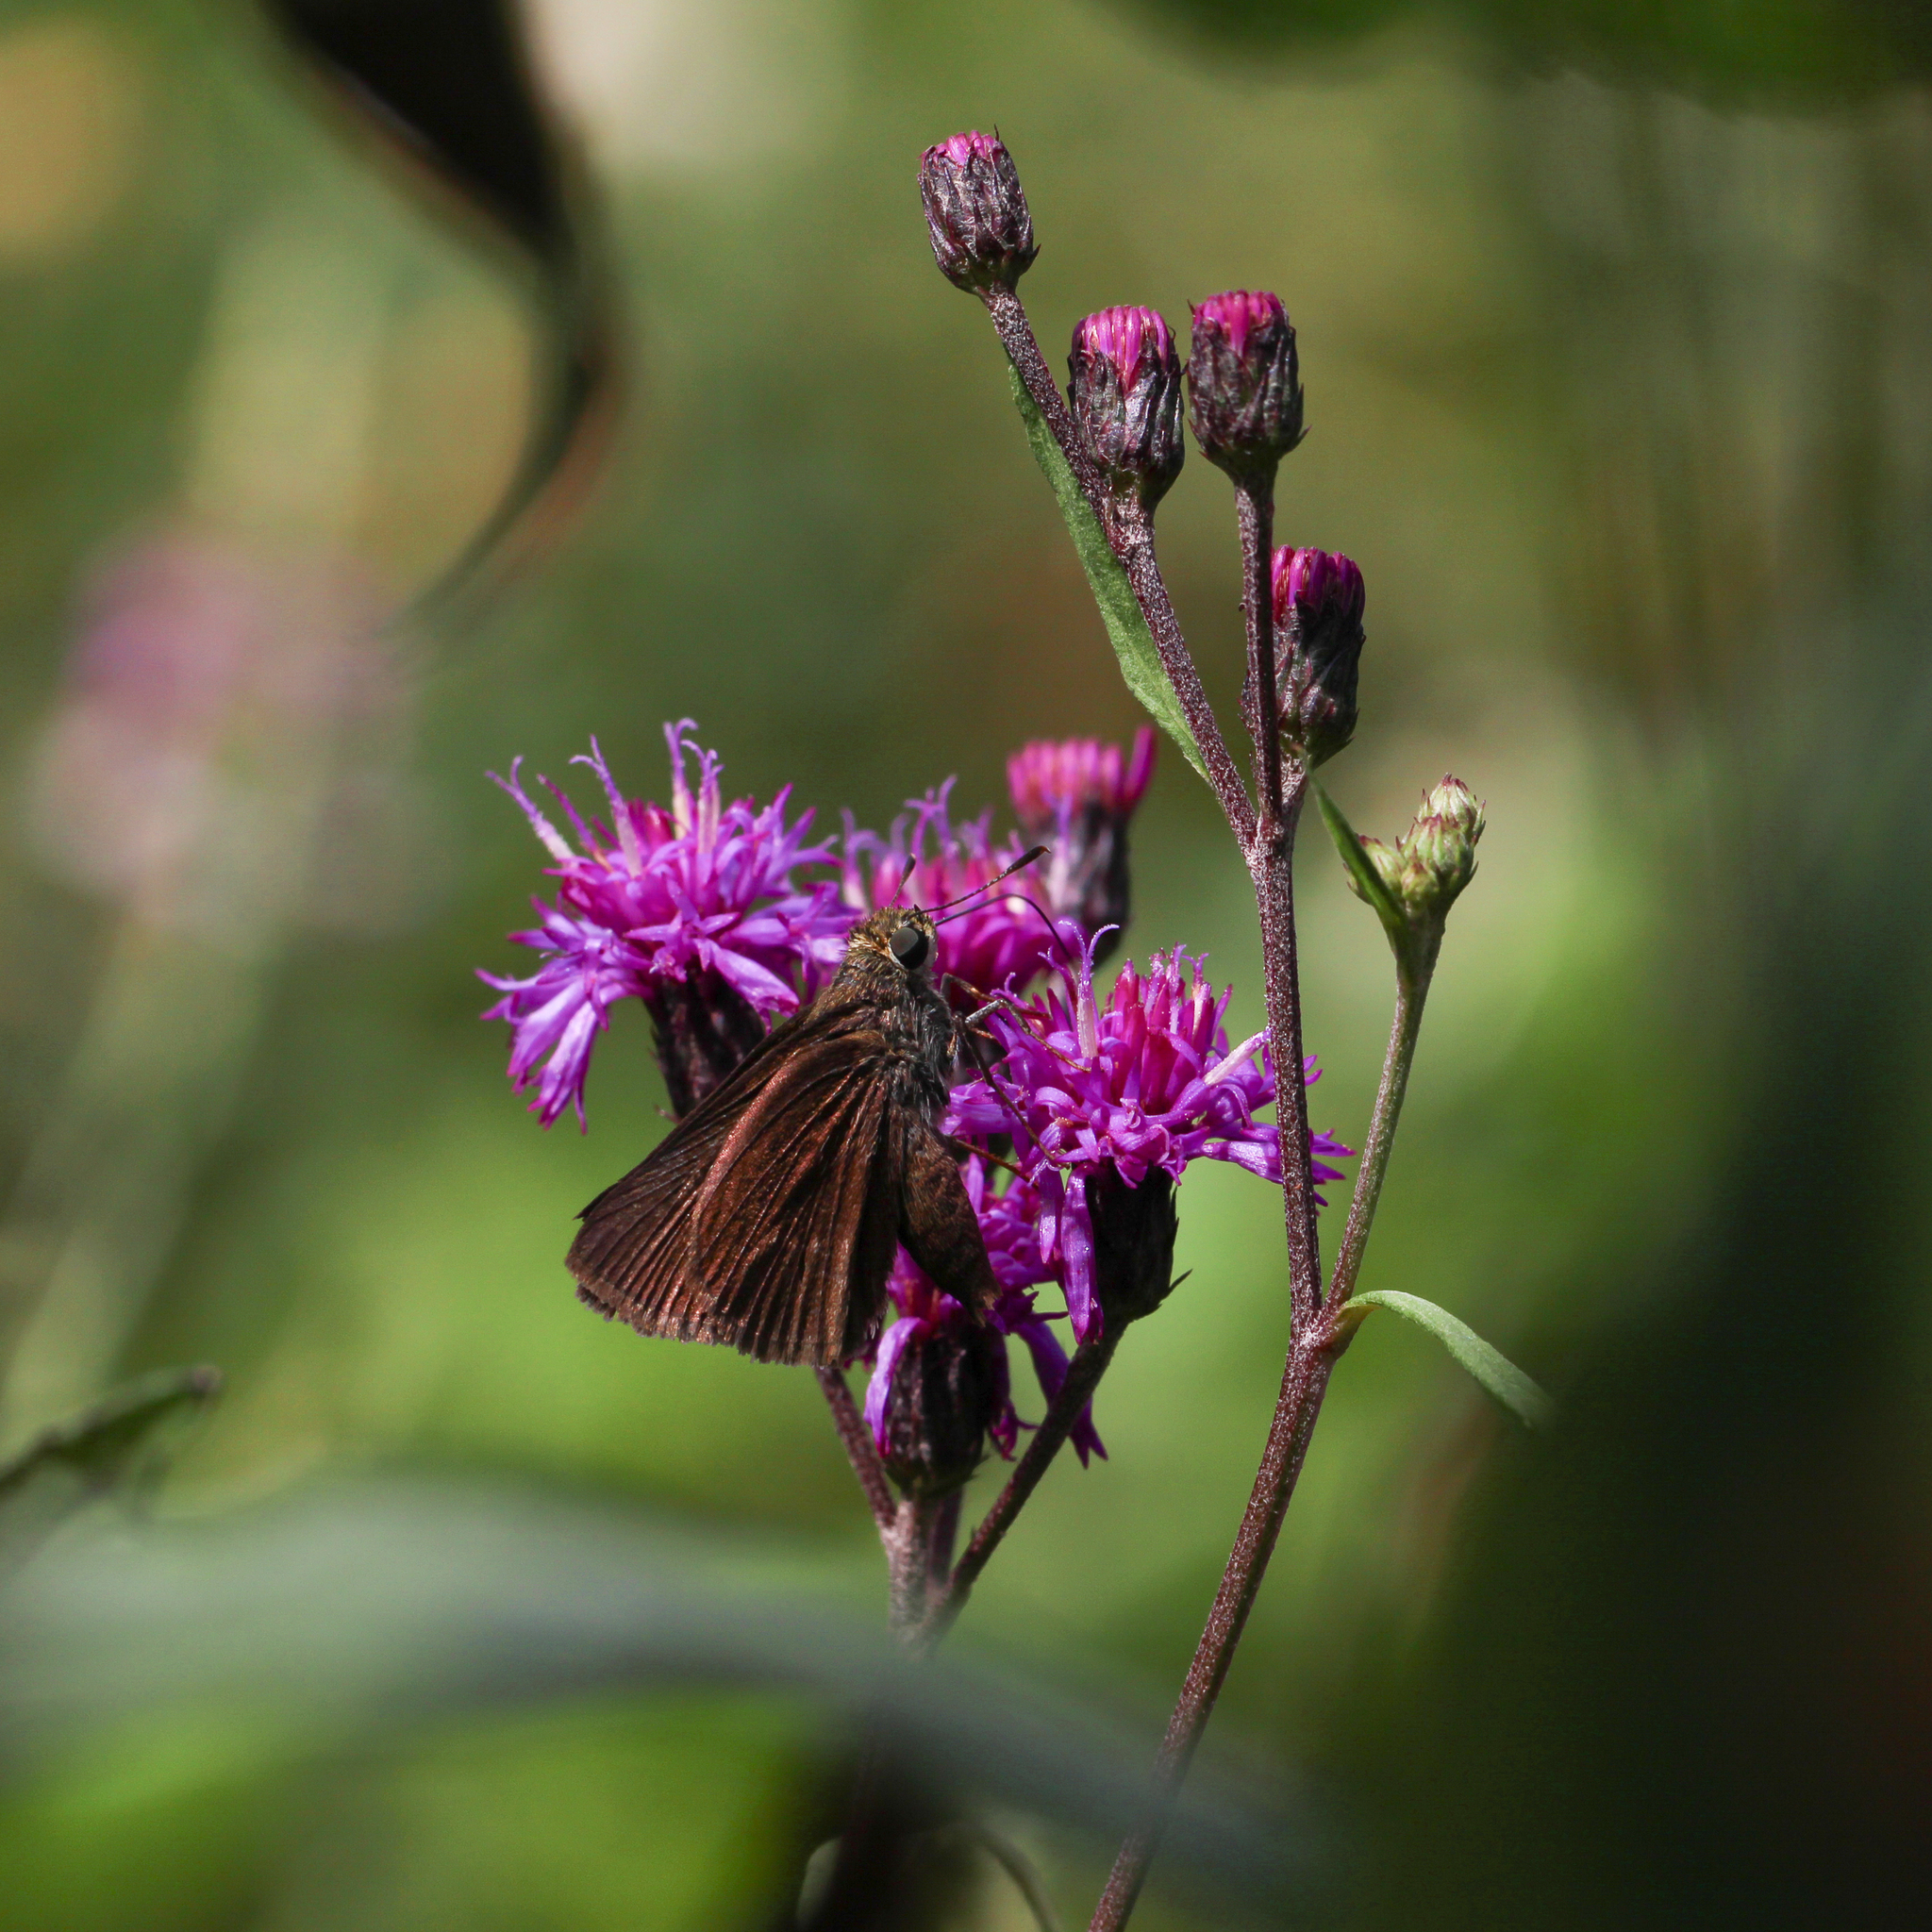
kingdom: Animalia
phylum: Arthropoda
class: Insecta
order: Lepidoptera
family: Hesperiidae
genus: Euphyes
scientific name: Euphyes vestris
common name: Dun skipper
